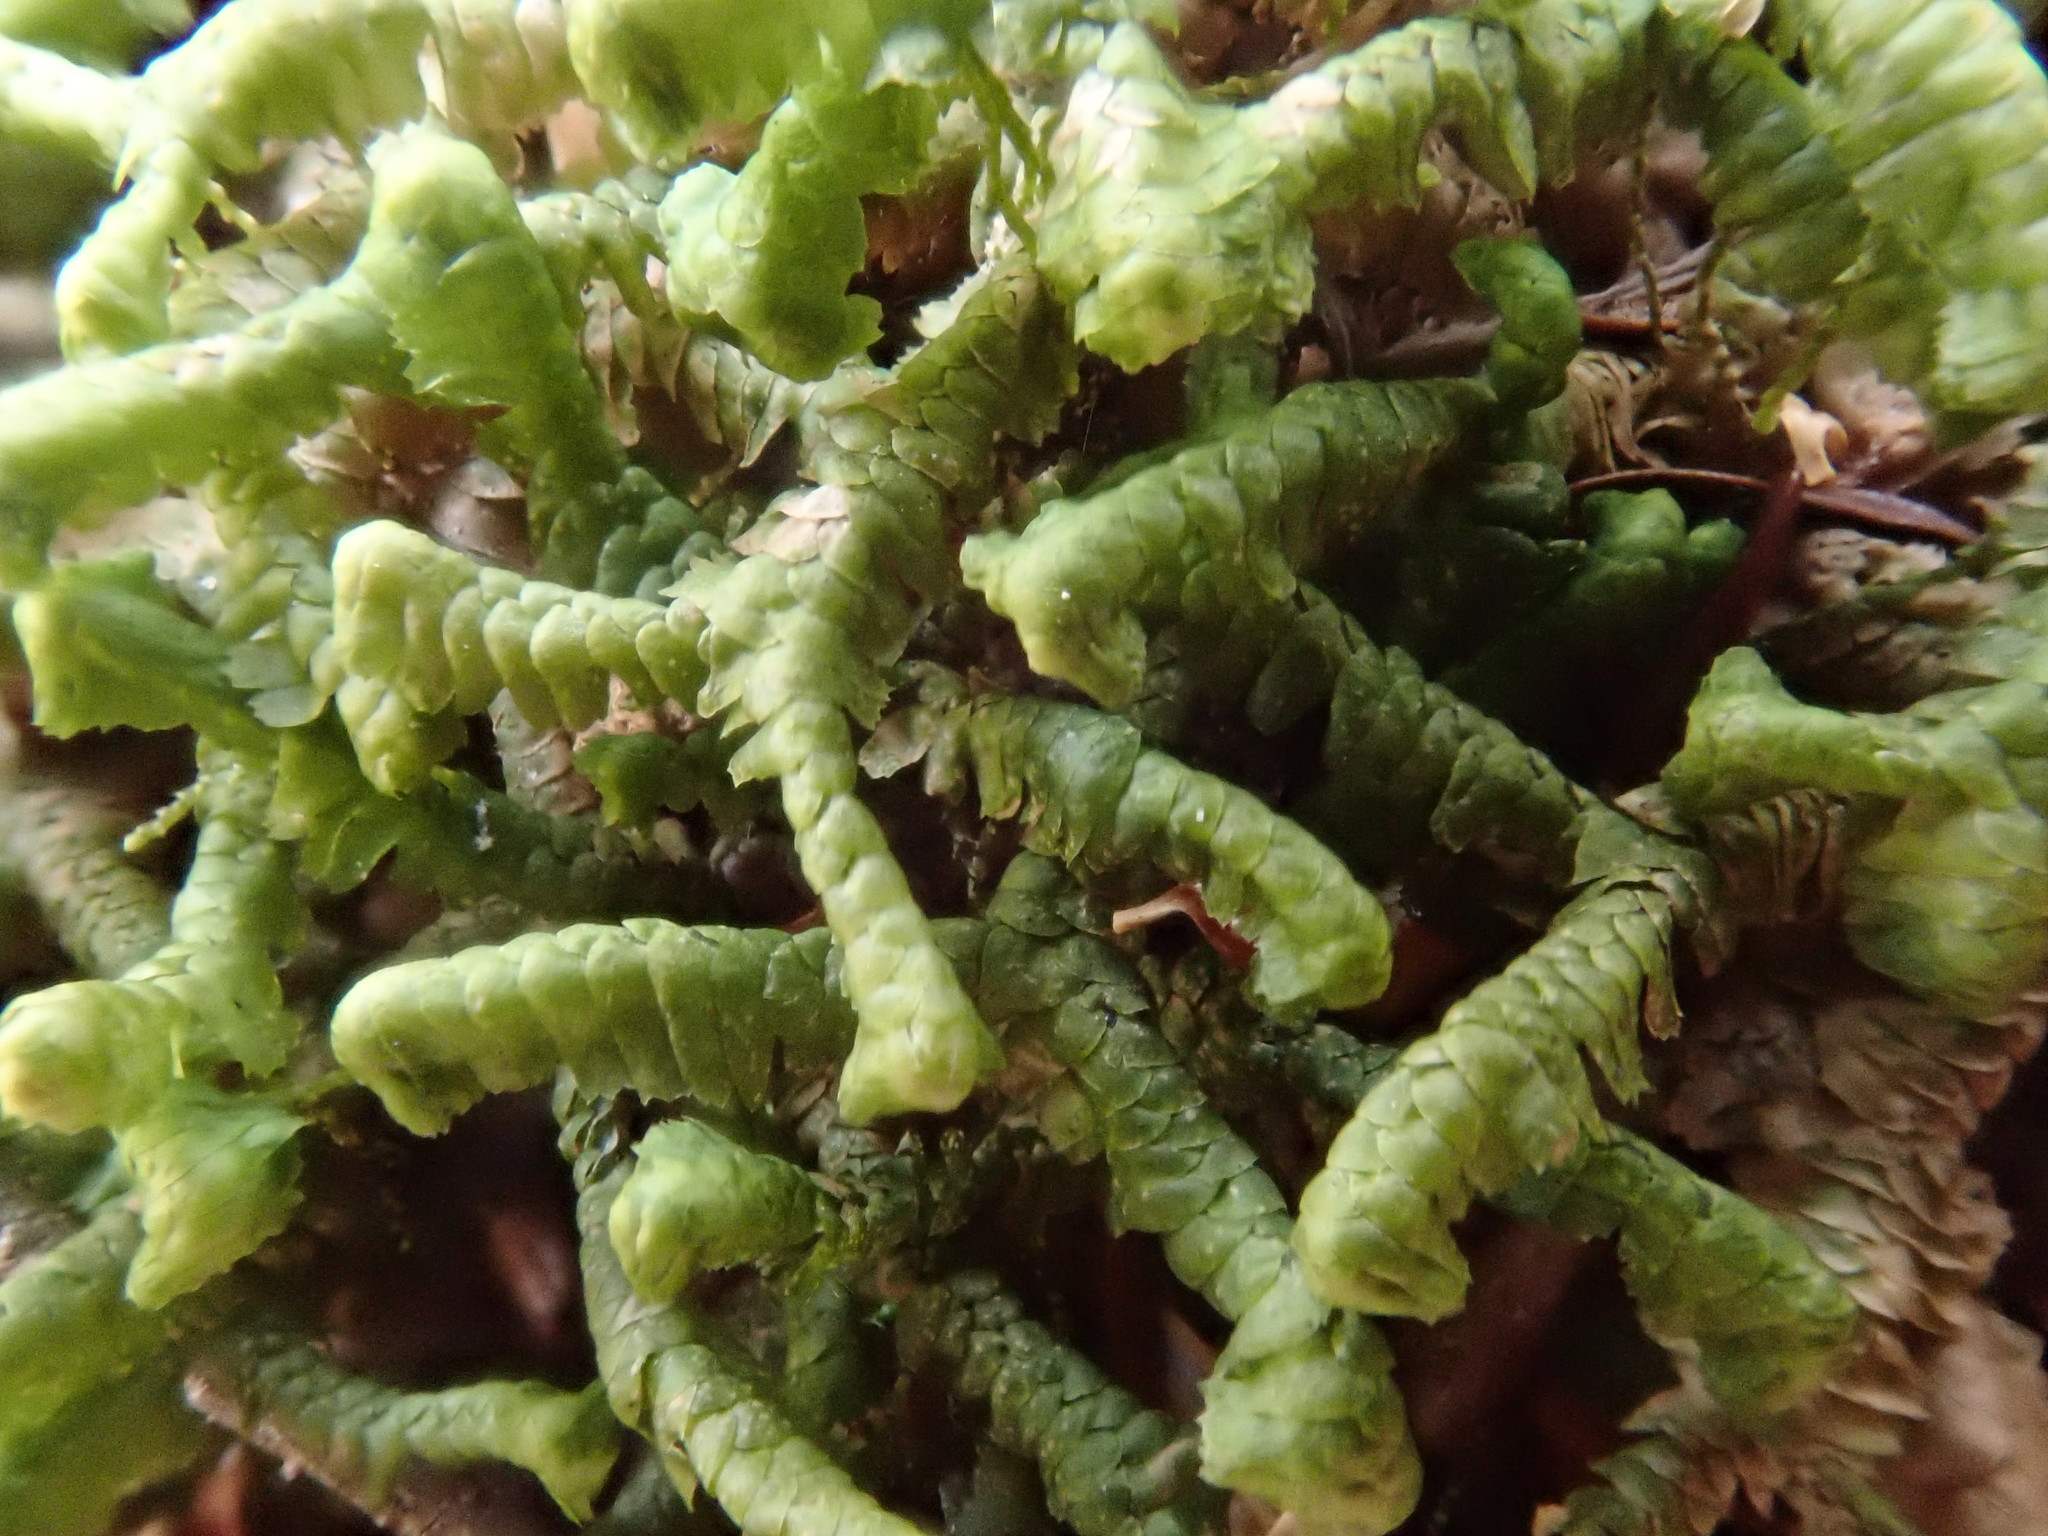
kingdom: Plantae
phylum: Marchantiophyta
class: Jungermanniopsida
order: Jungermanniales
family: Lepidoziaceae
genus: Bazzania
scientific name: Bazzania trilobata
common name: Three-lobed whipwort
